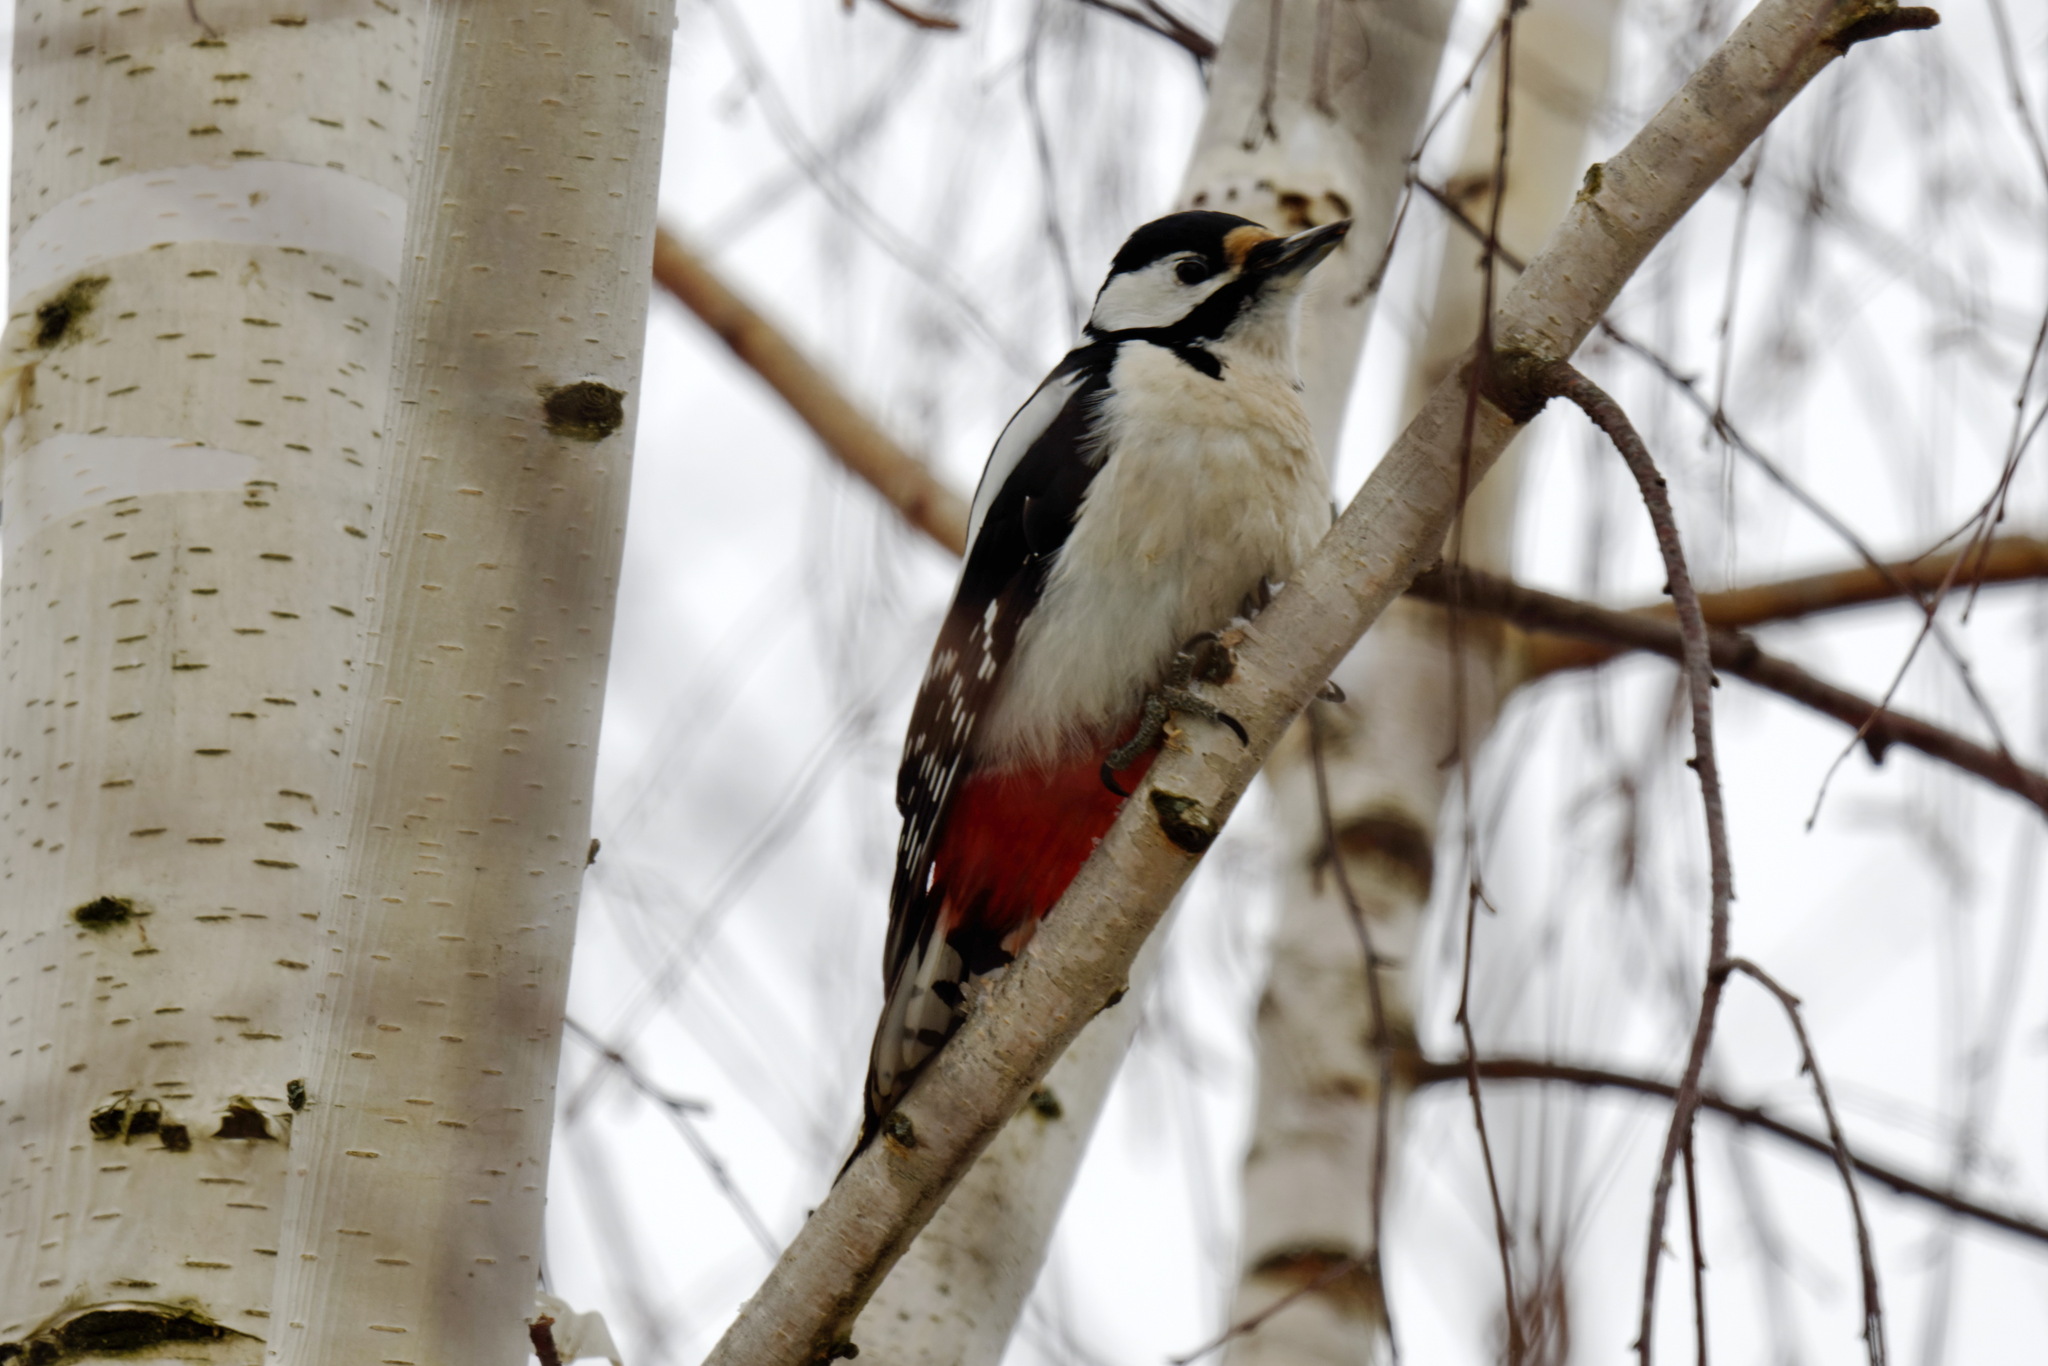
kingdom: Animalia
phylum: Chordata
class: Aves
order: Piciformes
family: Picidae
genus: Dendrocopos
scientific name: Dendrocopos major
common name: Great spotted woodpecker
